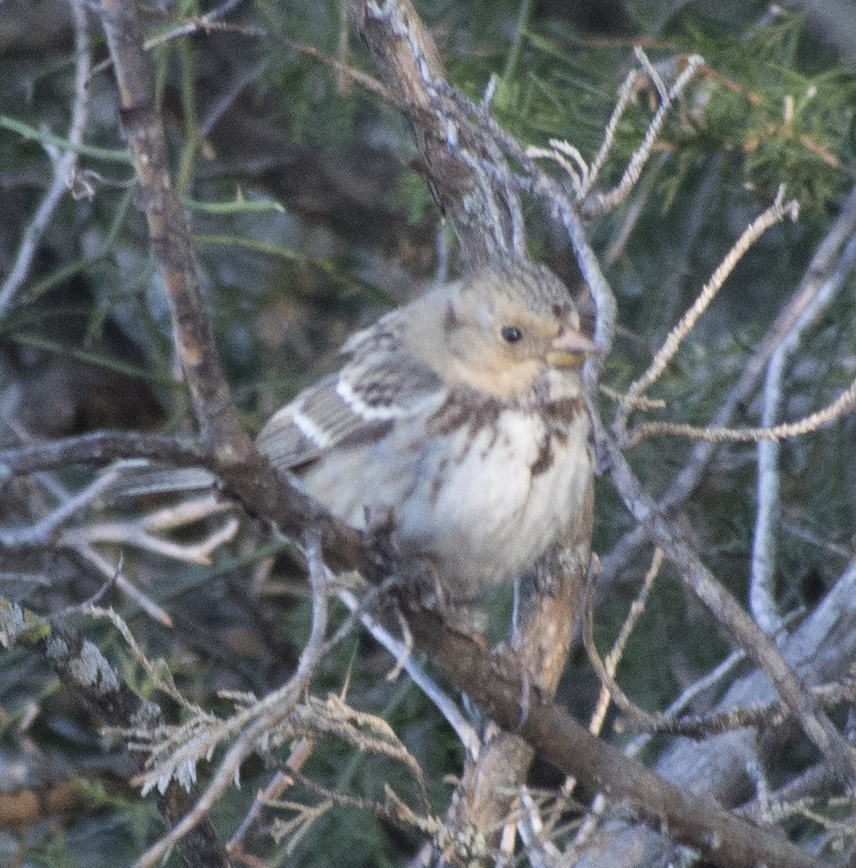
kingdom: Animalia
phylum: Chordata
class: Aves
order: Passeriformes
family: Passerellidae
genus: Zonotrichia
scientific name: Zonotrichia querula
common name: Harris's sparrow
